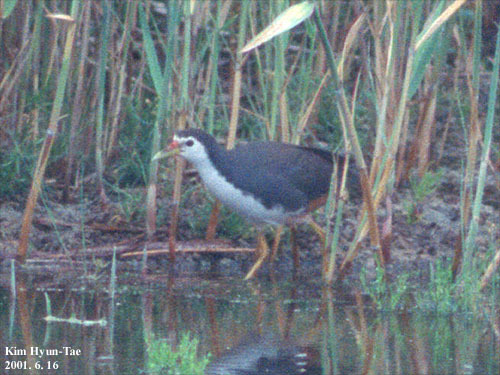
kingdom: Animalia
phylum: Chordata
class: Aves
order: Gruiformes
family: Rallidae
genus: Amaurornis
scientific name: Amaurornis phoenicurus
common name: White-breasted waterhen
